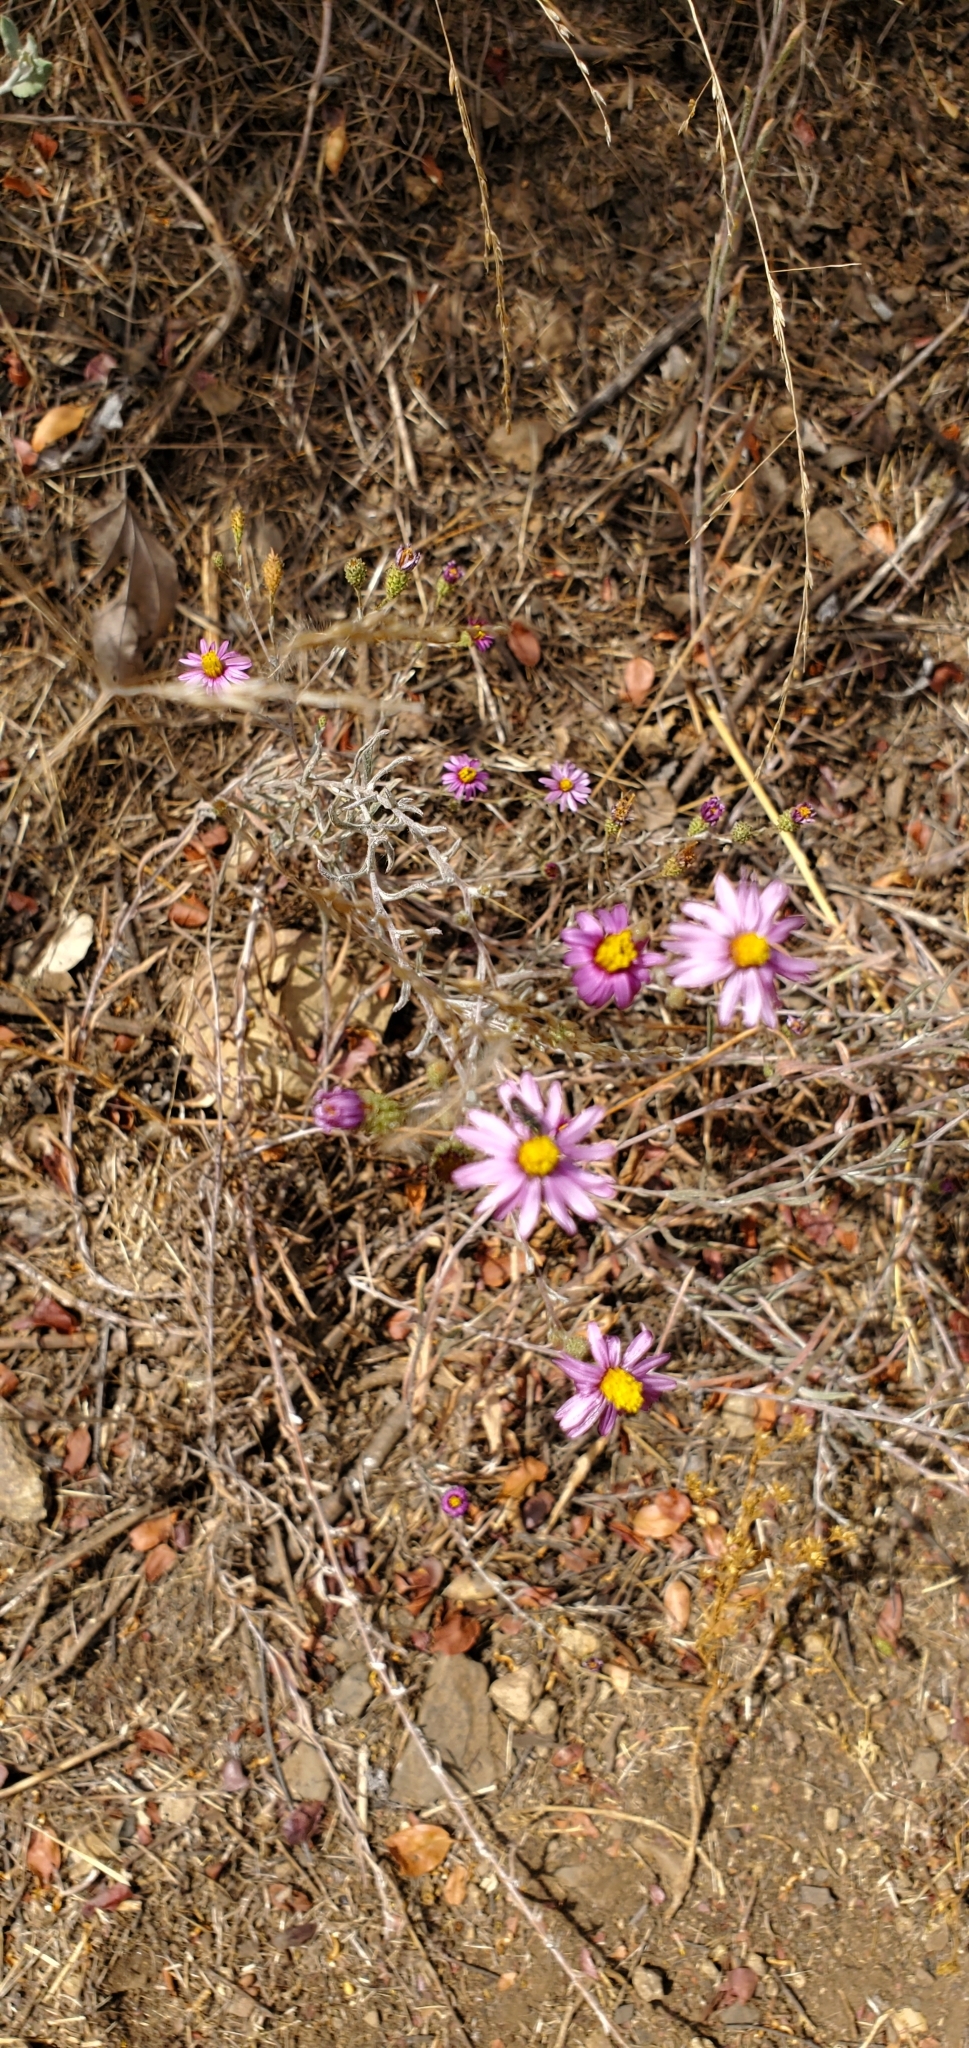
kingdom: Plantae
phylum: Tracheophyta
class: Magnoliopsida
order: Asterales
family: Asteraceae
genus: Corethrogyne
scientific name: Corethrogyne filaginifolia
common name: Sand-aster
